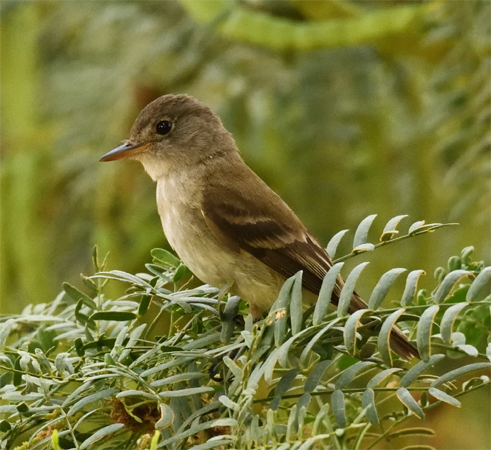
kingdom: Animalia
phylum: Chordata
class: Aves
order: Passeriformes
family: Tyrannidae
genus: Empidonax
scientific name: Empidonax traillii
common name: Willow flycatcher
